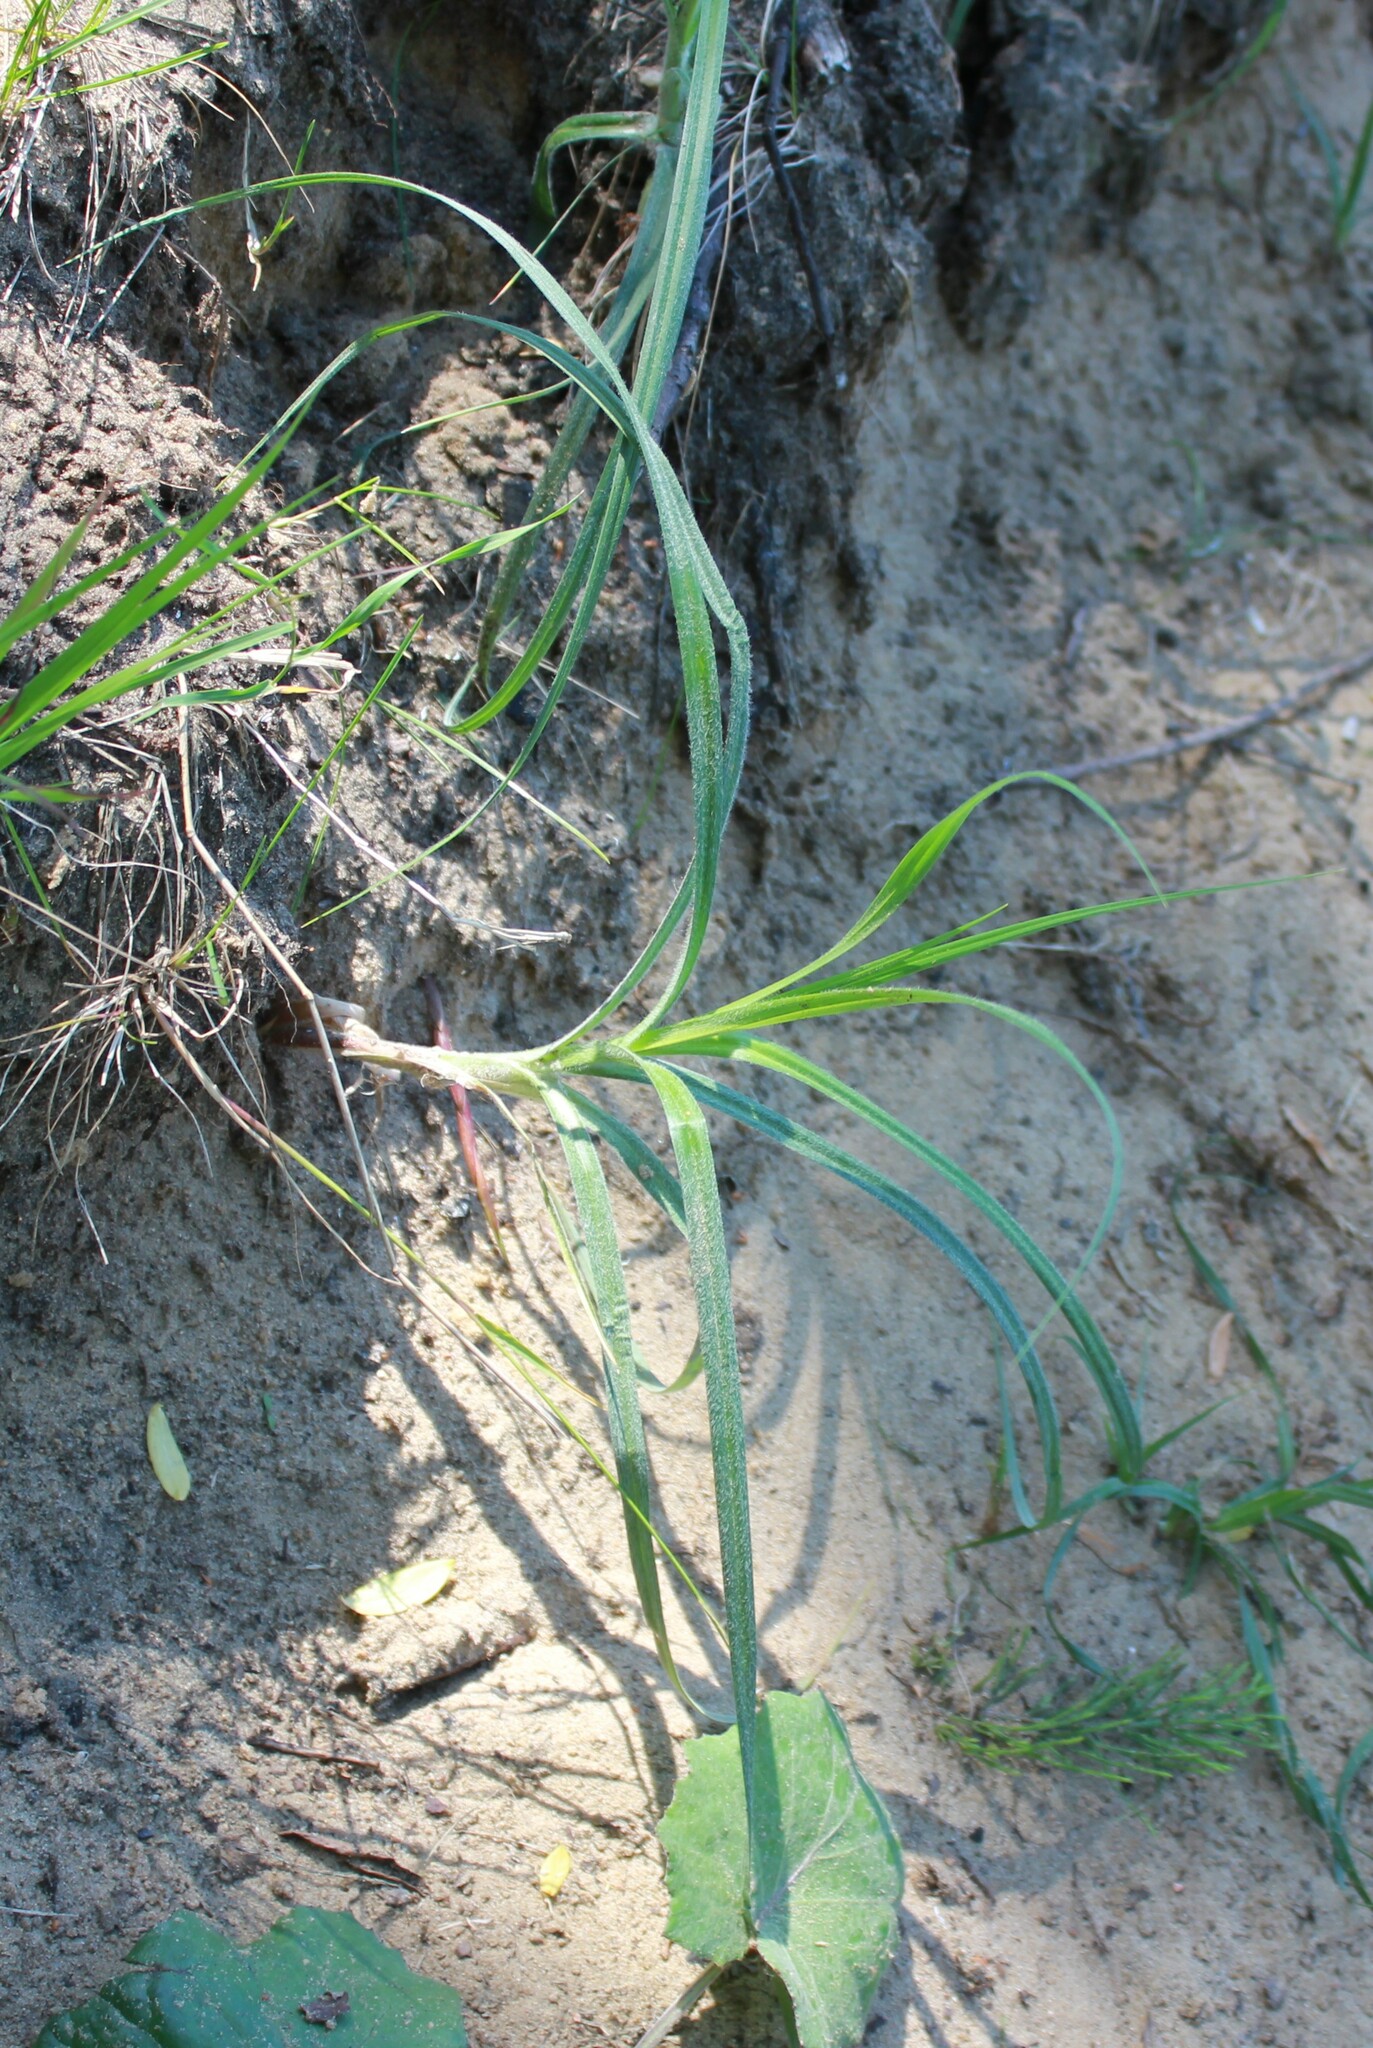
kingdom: Plantae
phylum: Tracheophyta
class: Liliopsida
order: Poales
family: Cyperaceae
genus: Carex
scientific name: Carex hirta
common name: Hairy sedge
